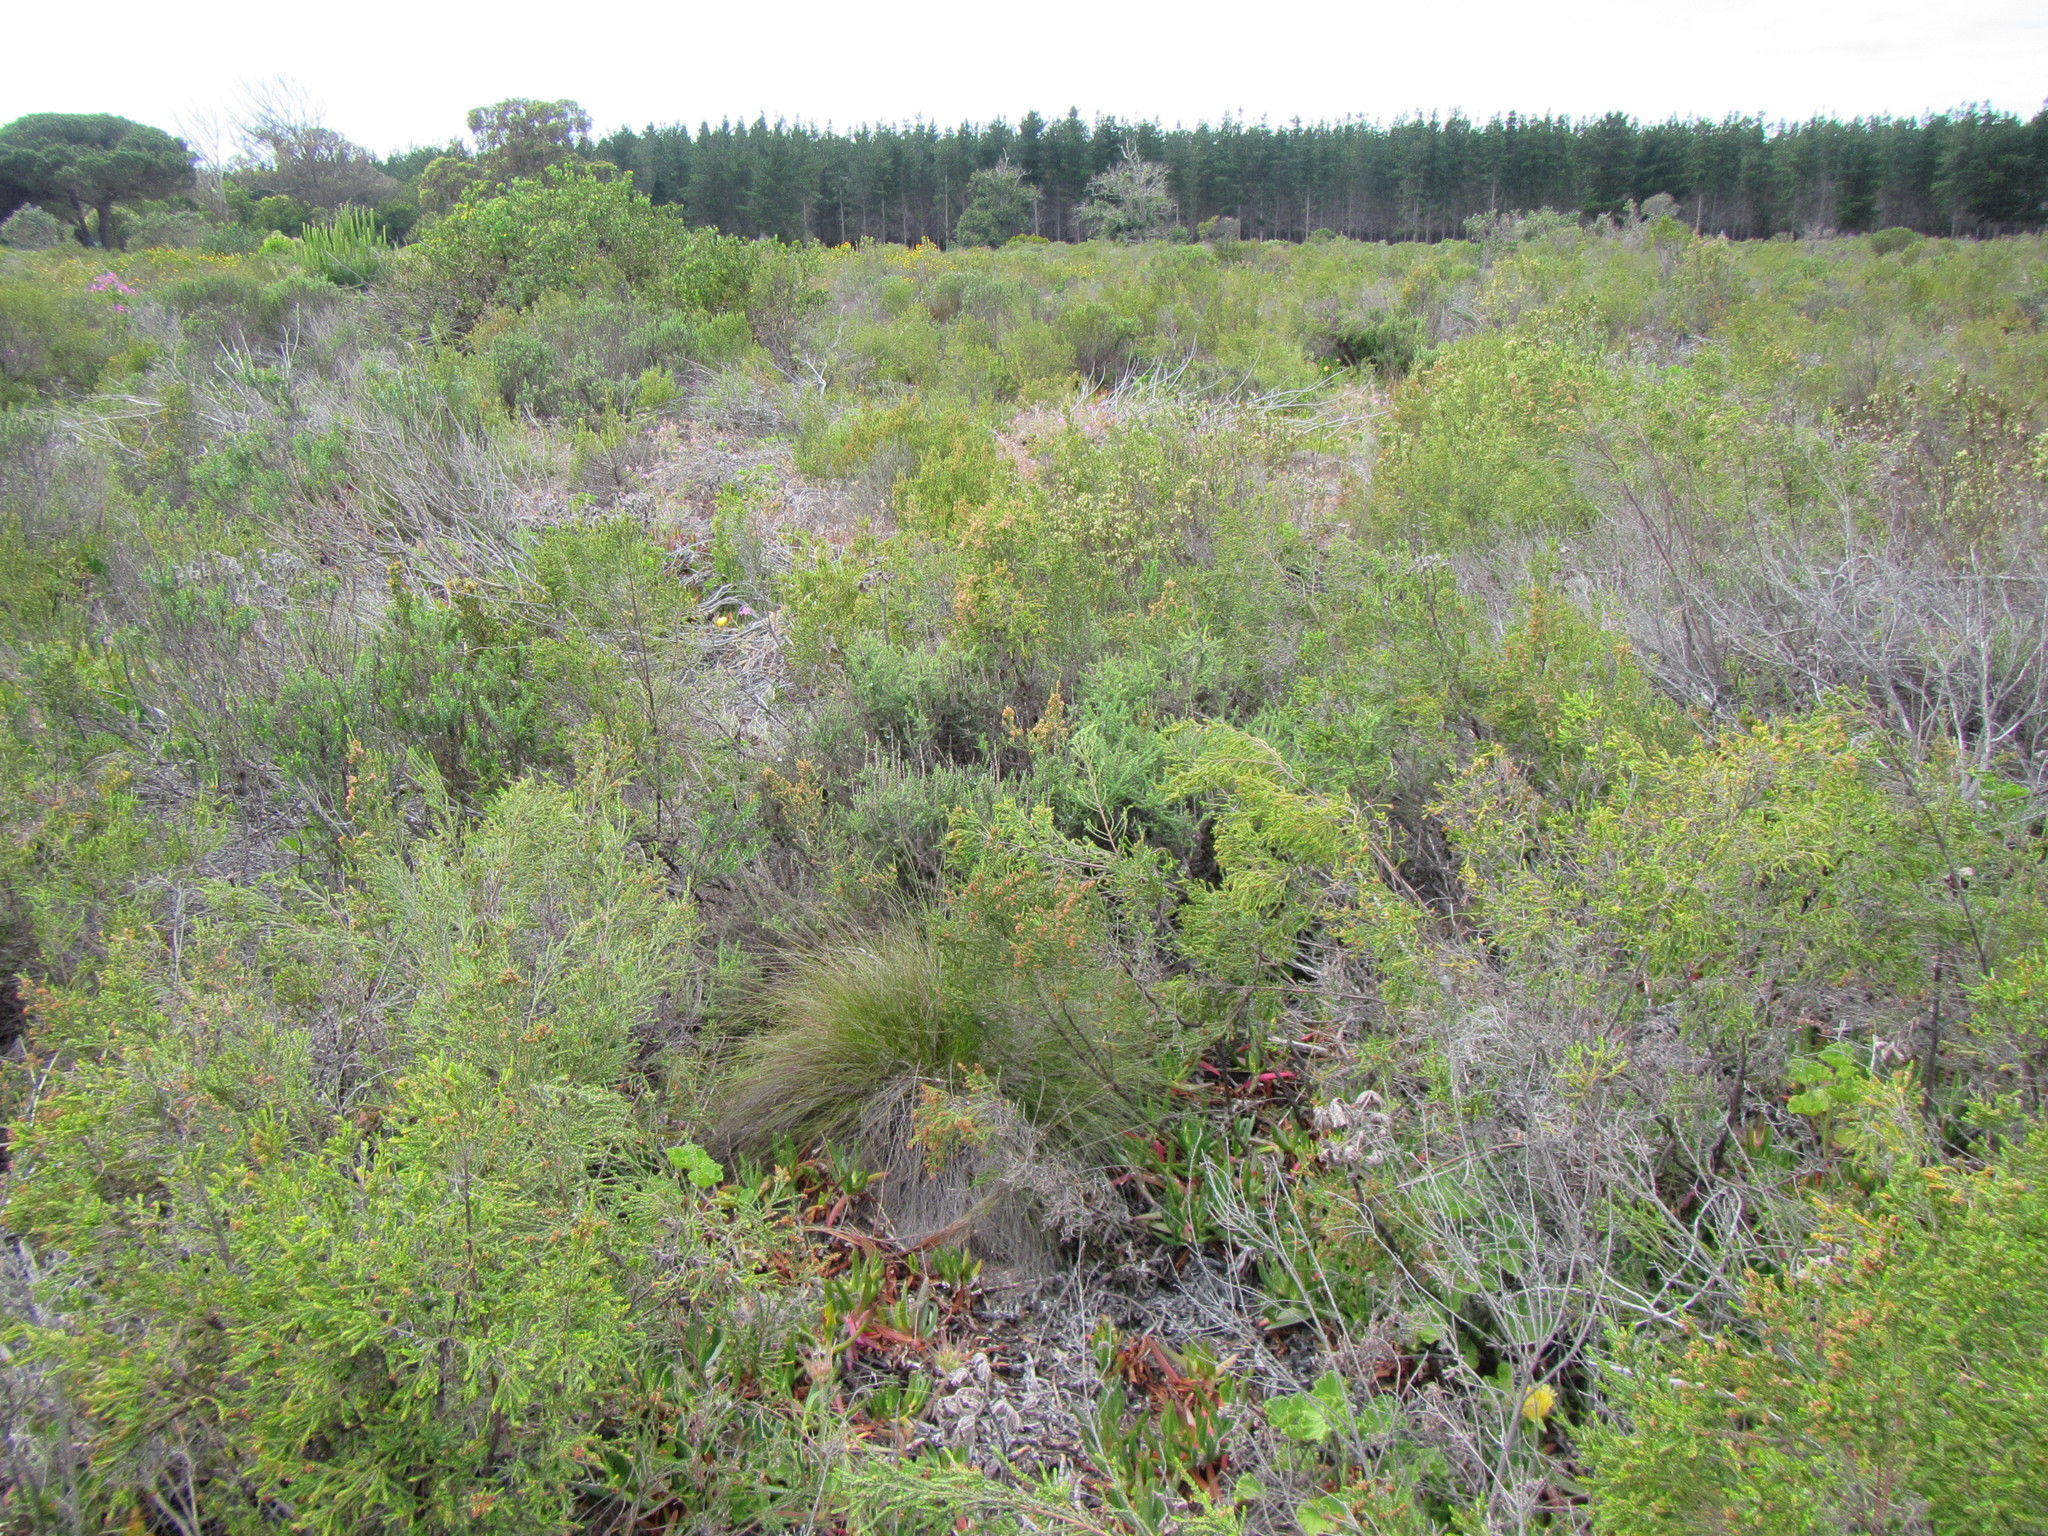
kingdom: Plantae
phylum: Tracheophyta
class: Liliopsida
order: Poales
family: Cyperaceae
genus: Schoenus
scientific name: Schoenus inconspicuus
